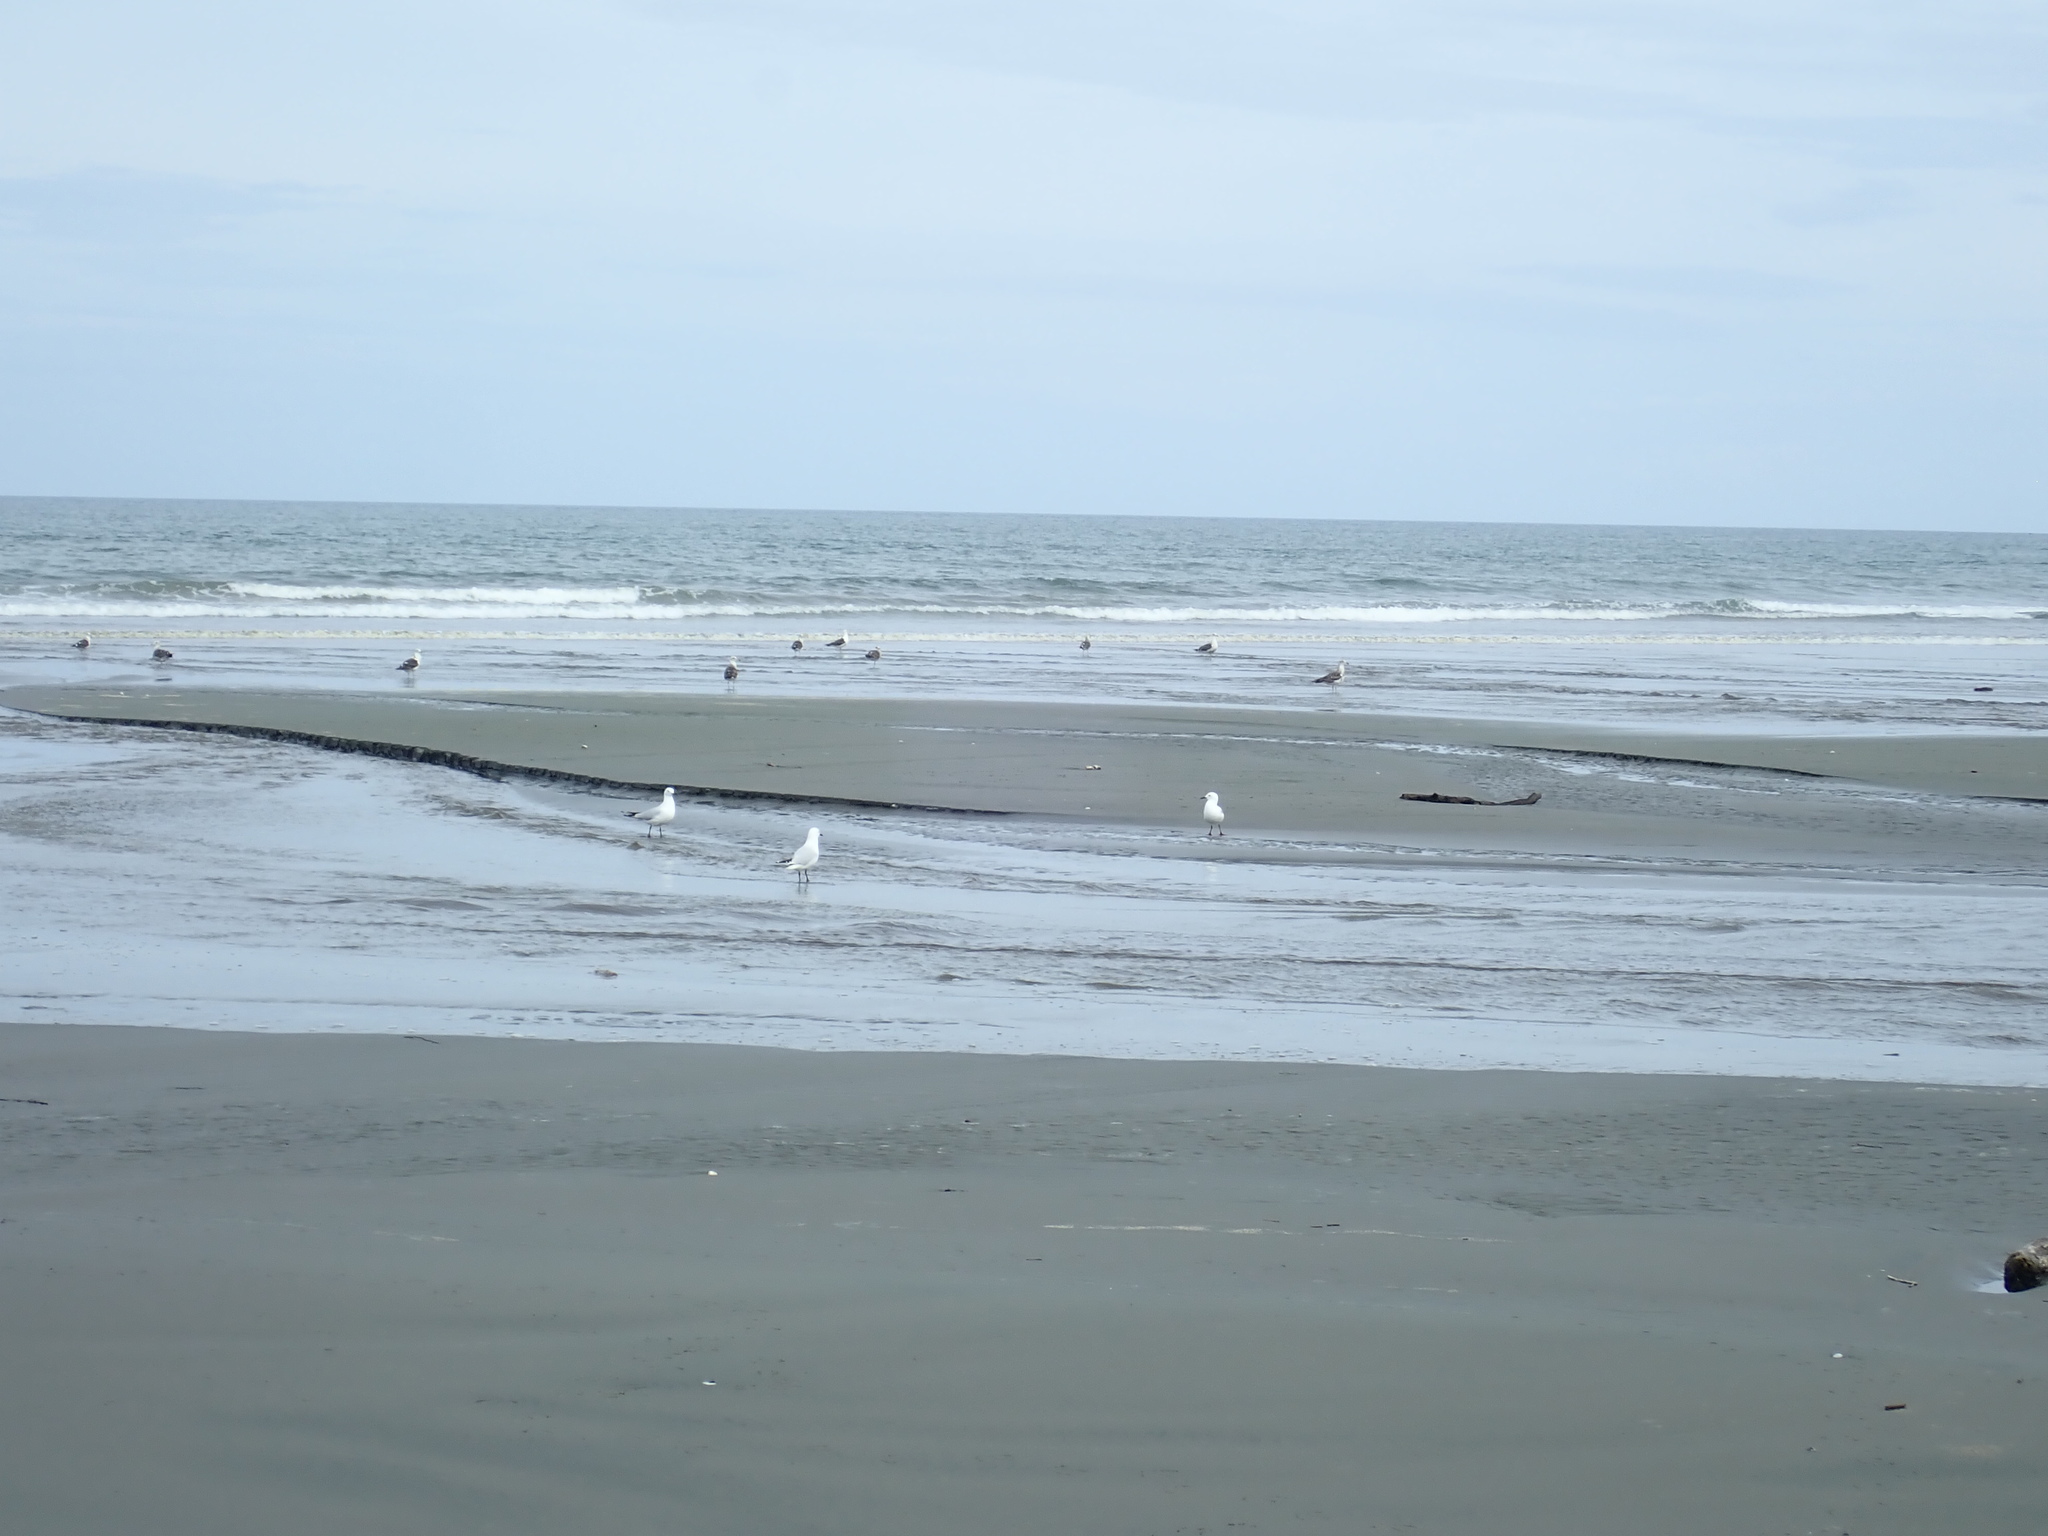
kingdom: Animalia
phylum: Chordata
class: Aves
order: Charadriiformes
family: Laridae
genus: Chroicocephalus
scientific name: Chroicocephalus bulleri
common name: Black-billed gull
